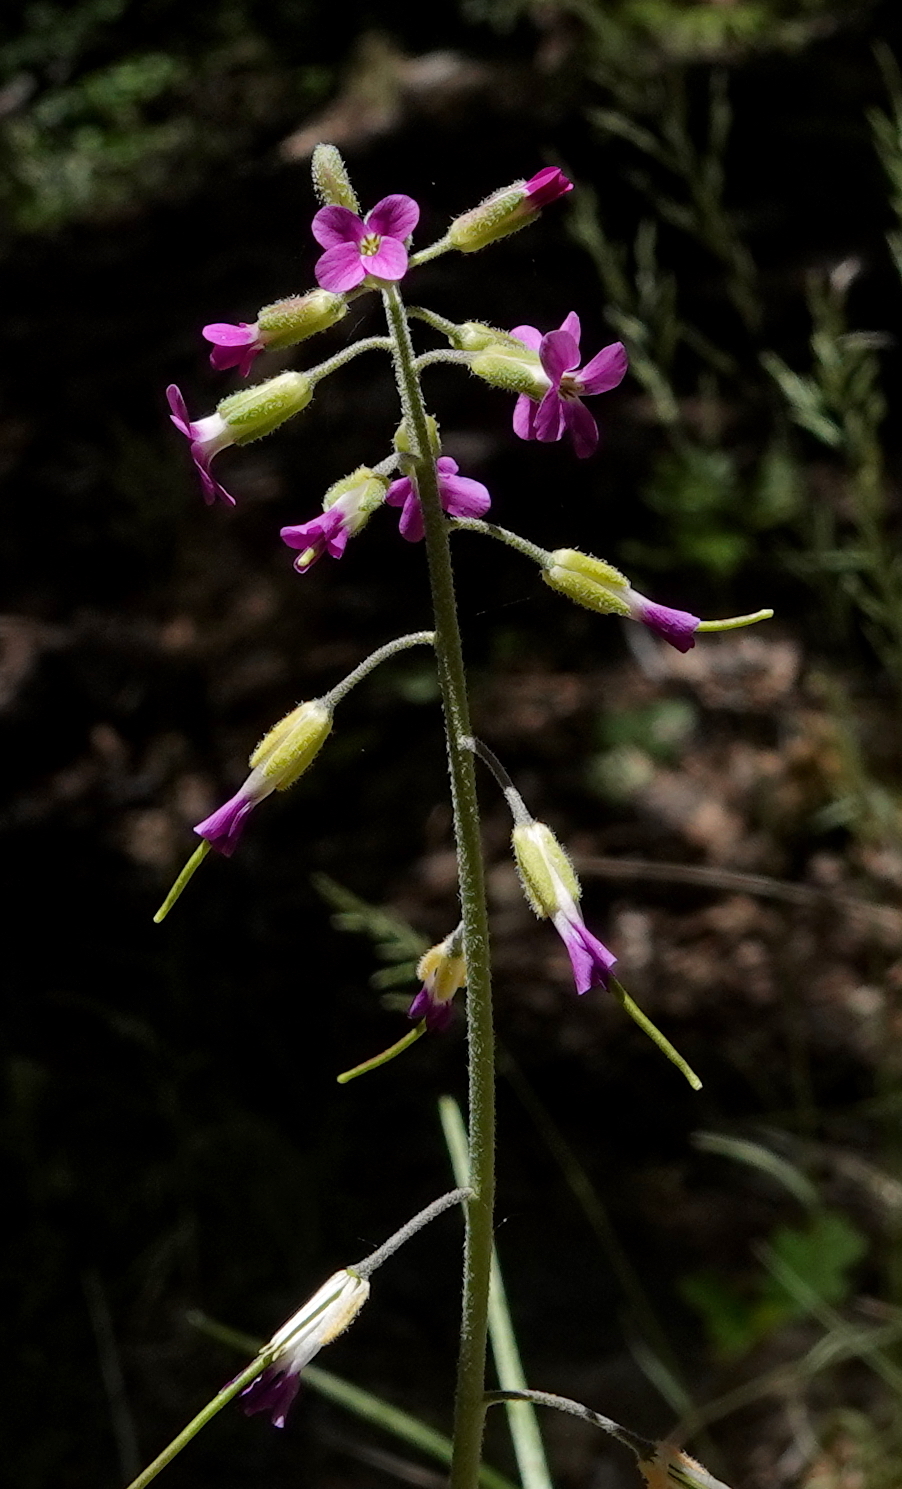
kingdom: Plantae
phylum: Tracheophyta
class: Magnoliopsida
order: Brassicales
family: Brassicaceae
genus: Boechera
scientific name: Boechera californica
